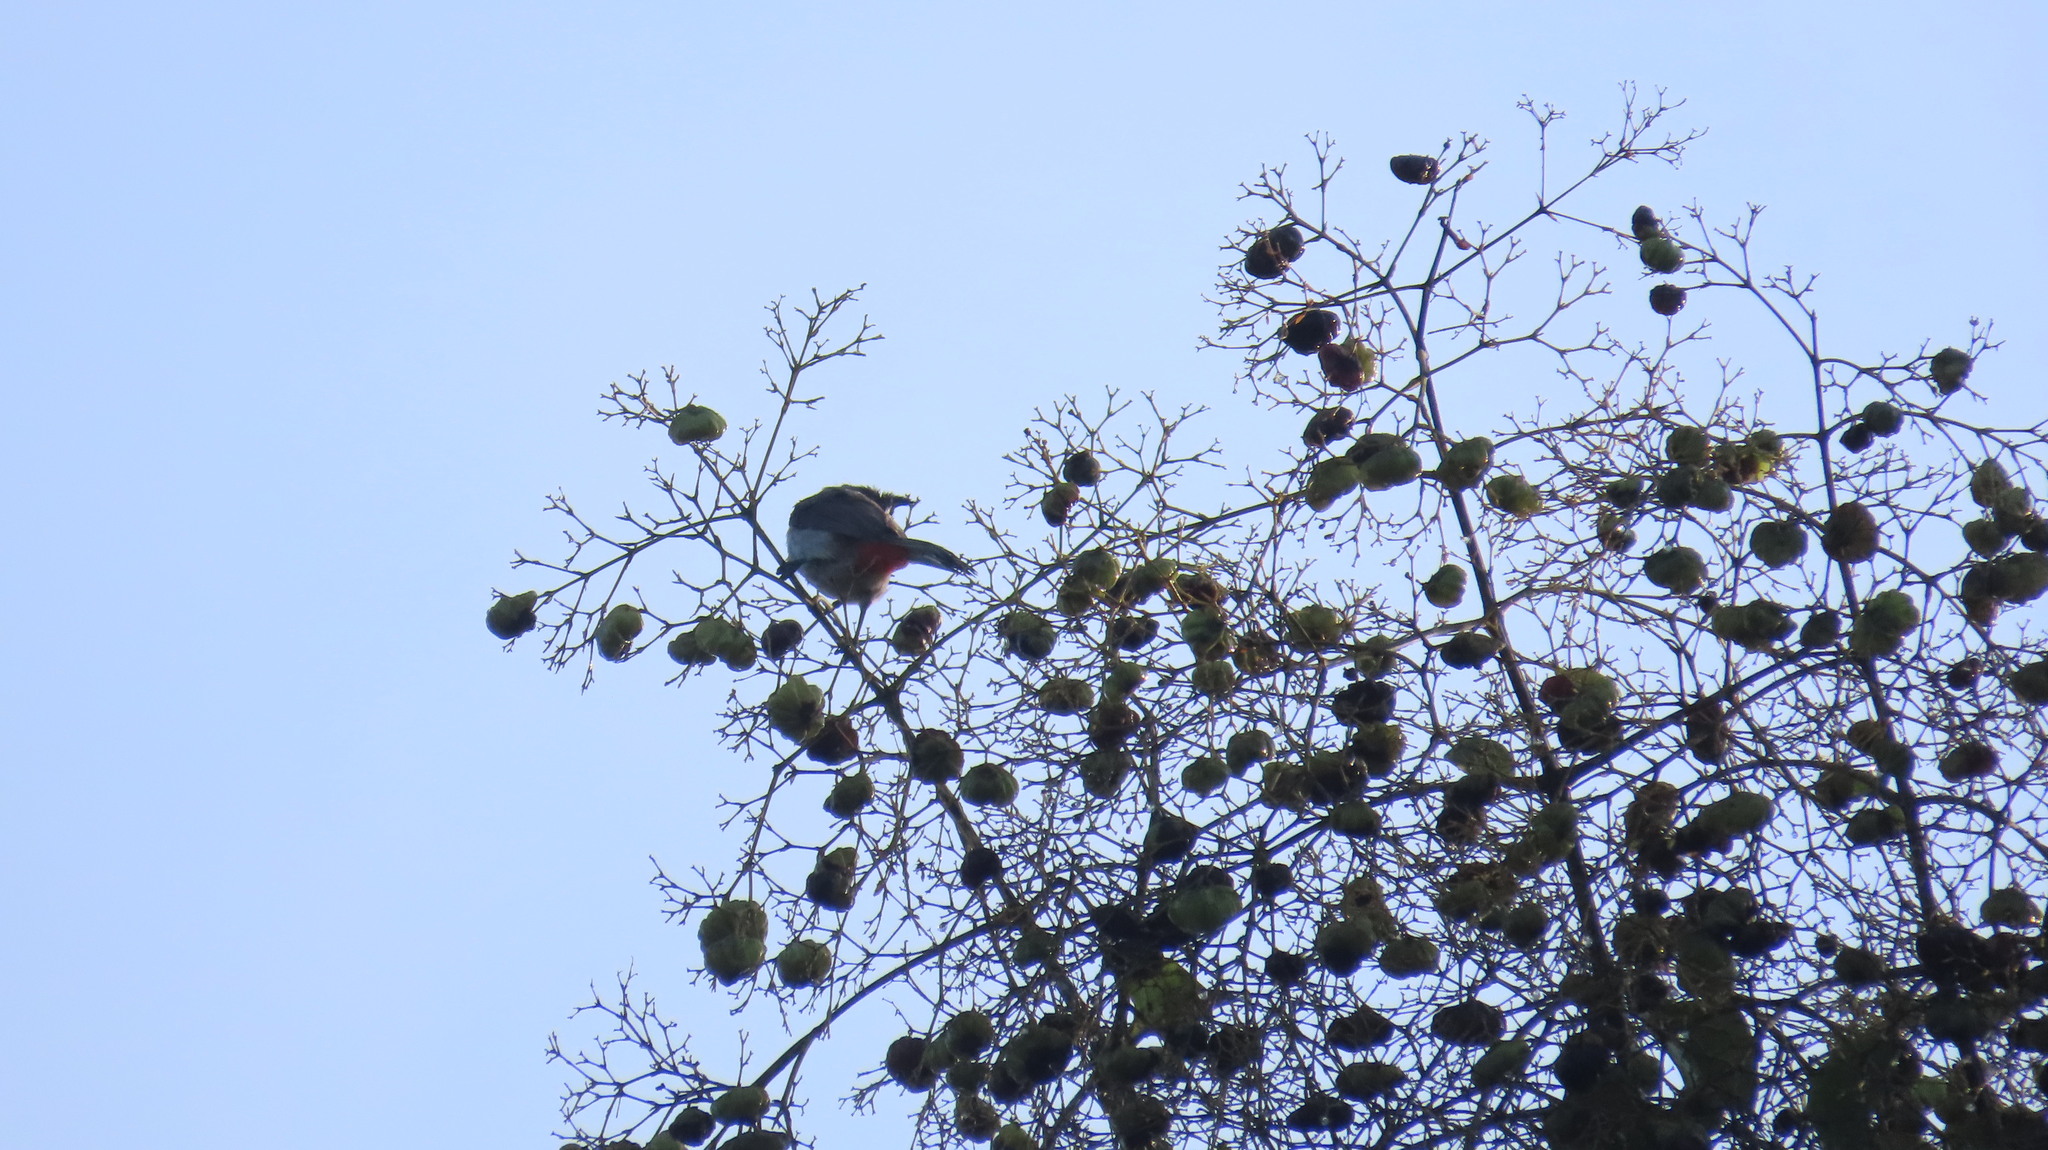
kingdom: Animalia
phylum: Chordata
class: Aves
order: Passeriformes
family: Pycnonotidae
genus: Pycnonotus
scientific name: Pycnonotus jocosus
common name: Red-whiskered bulbul
